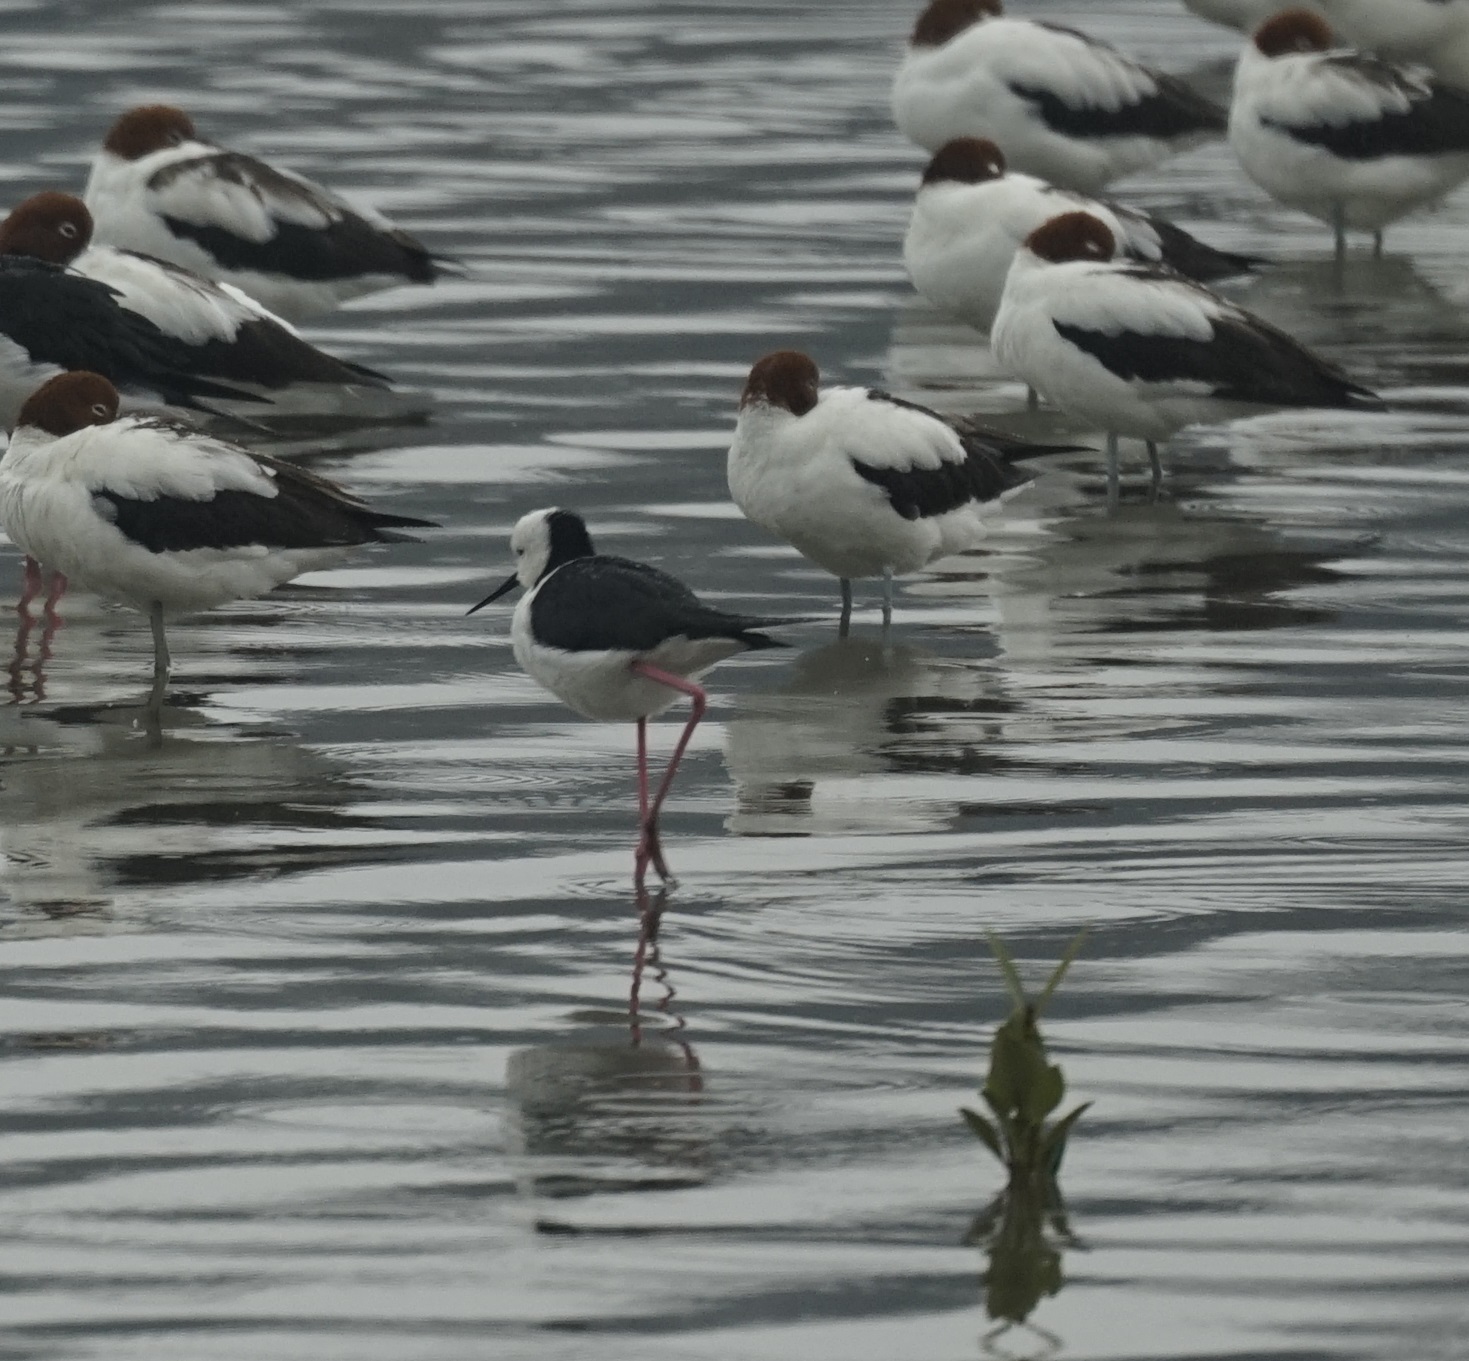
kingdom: Animalia
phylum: Chordata
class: Aves
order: Charadriiformes
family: Recurvirostridae
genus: Himantopus
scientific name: Himantopus leucocephalus
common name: White-headed stilt
